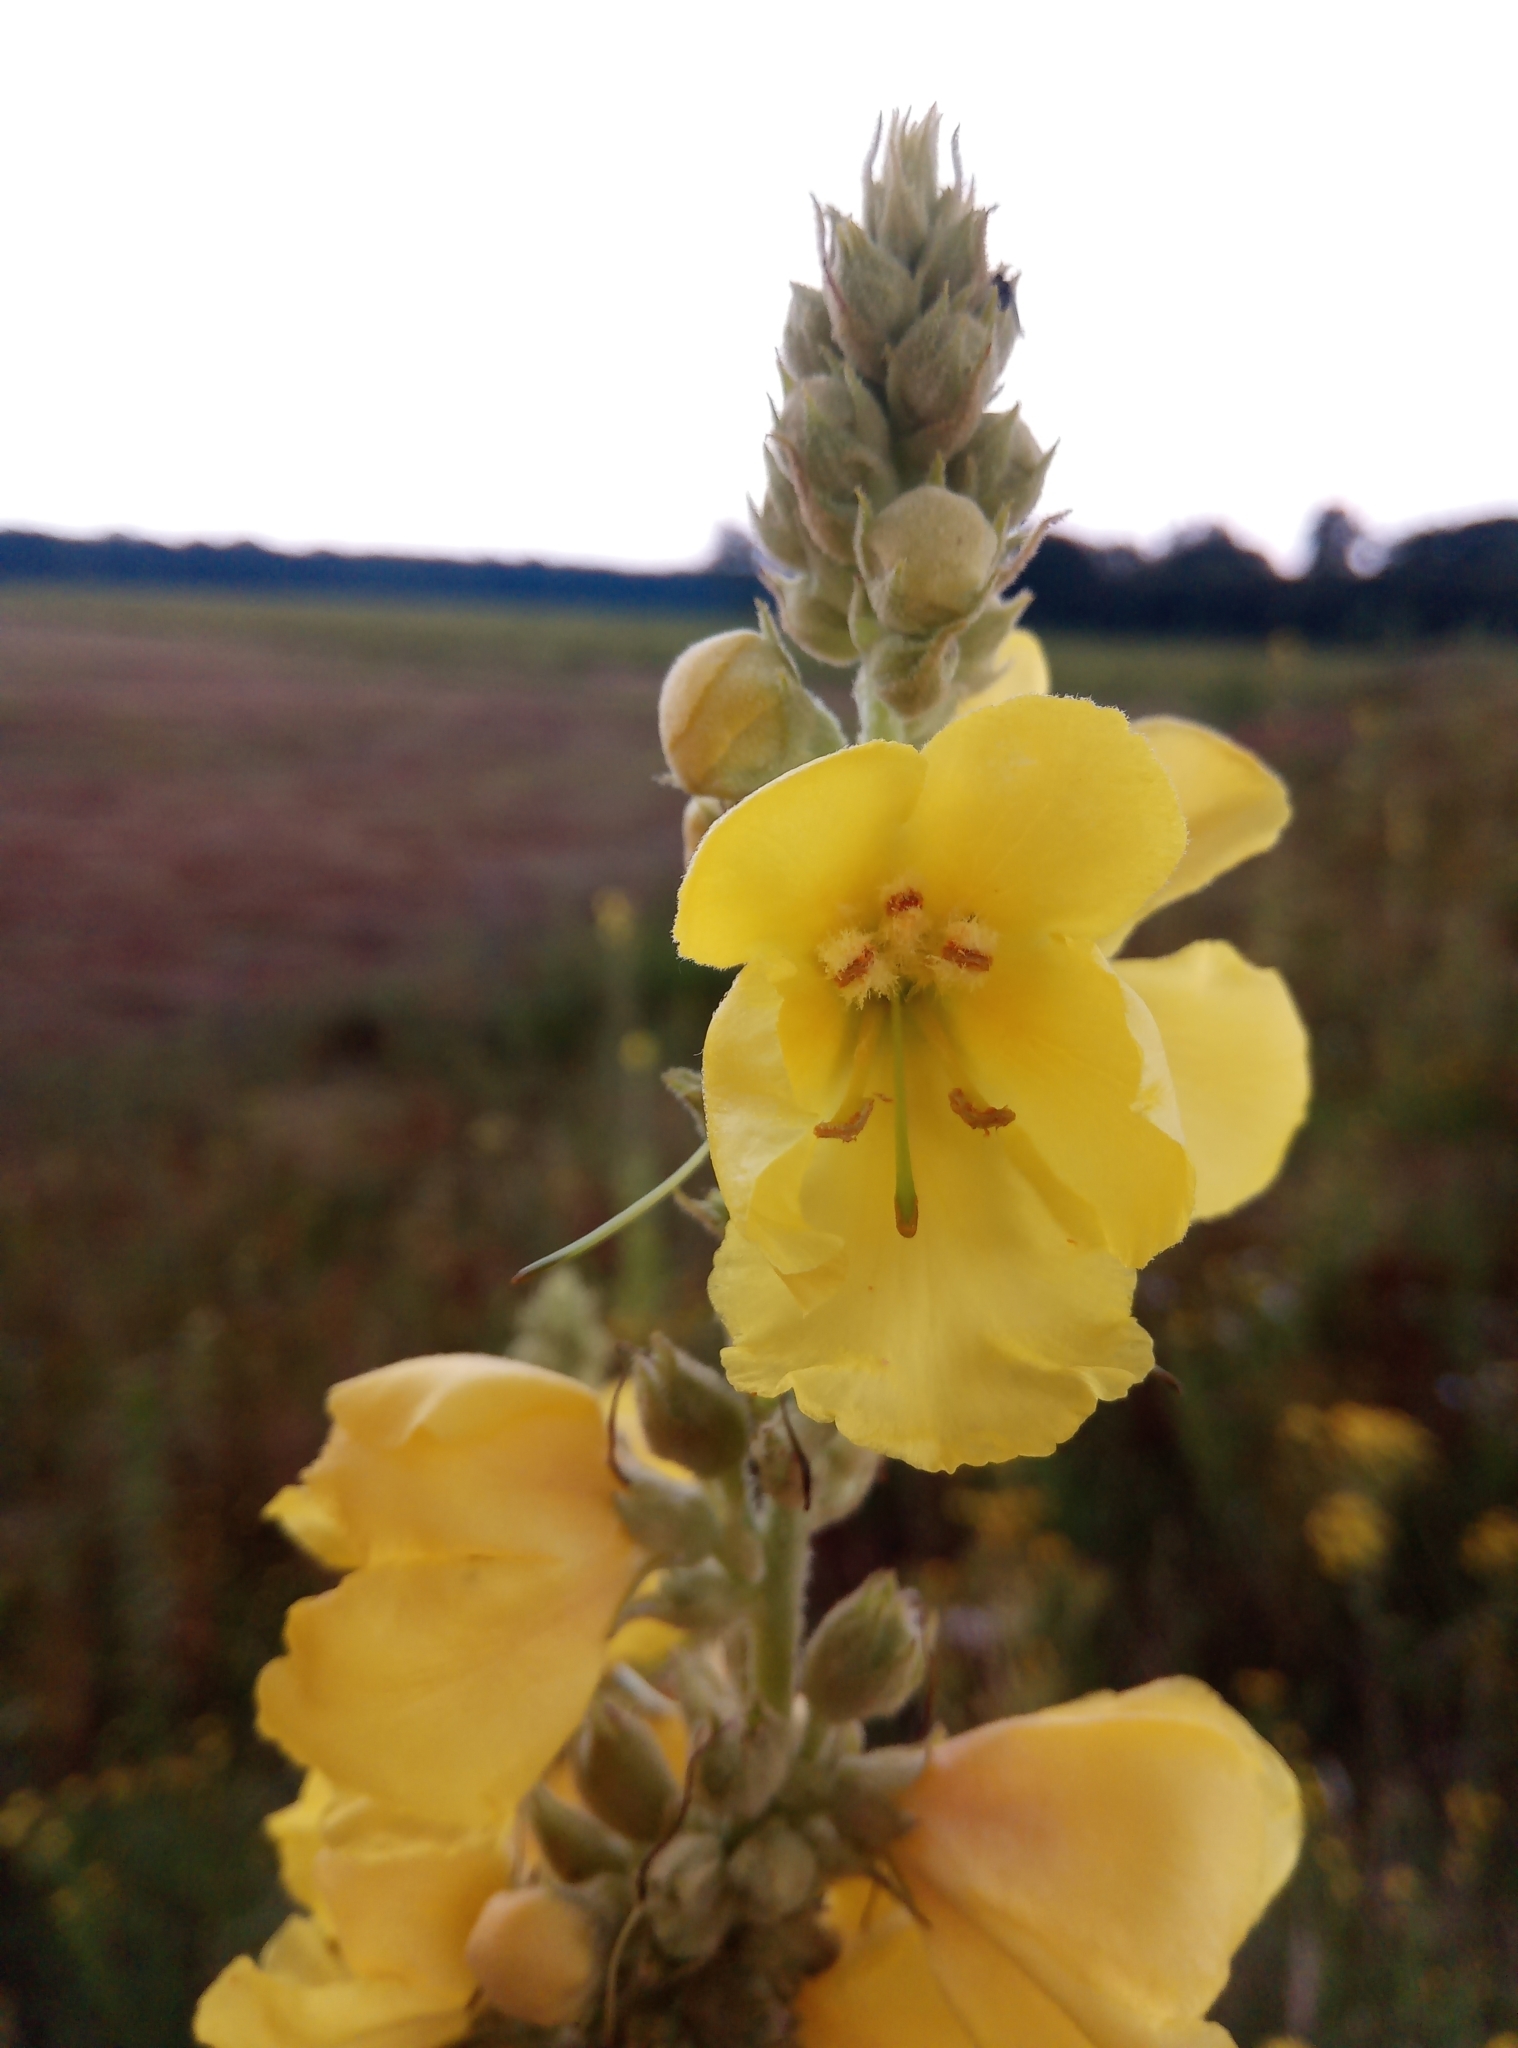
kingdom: Plantae
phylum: Tracheophyta
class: Magnoliopsida
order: Lamiales
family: Scrophulariaceae
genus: Verbascum
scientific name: Verbascum phlomoides
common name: Orange mullein
